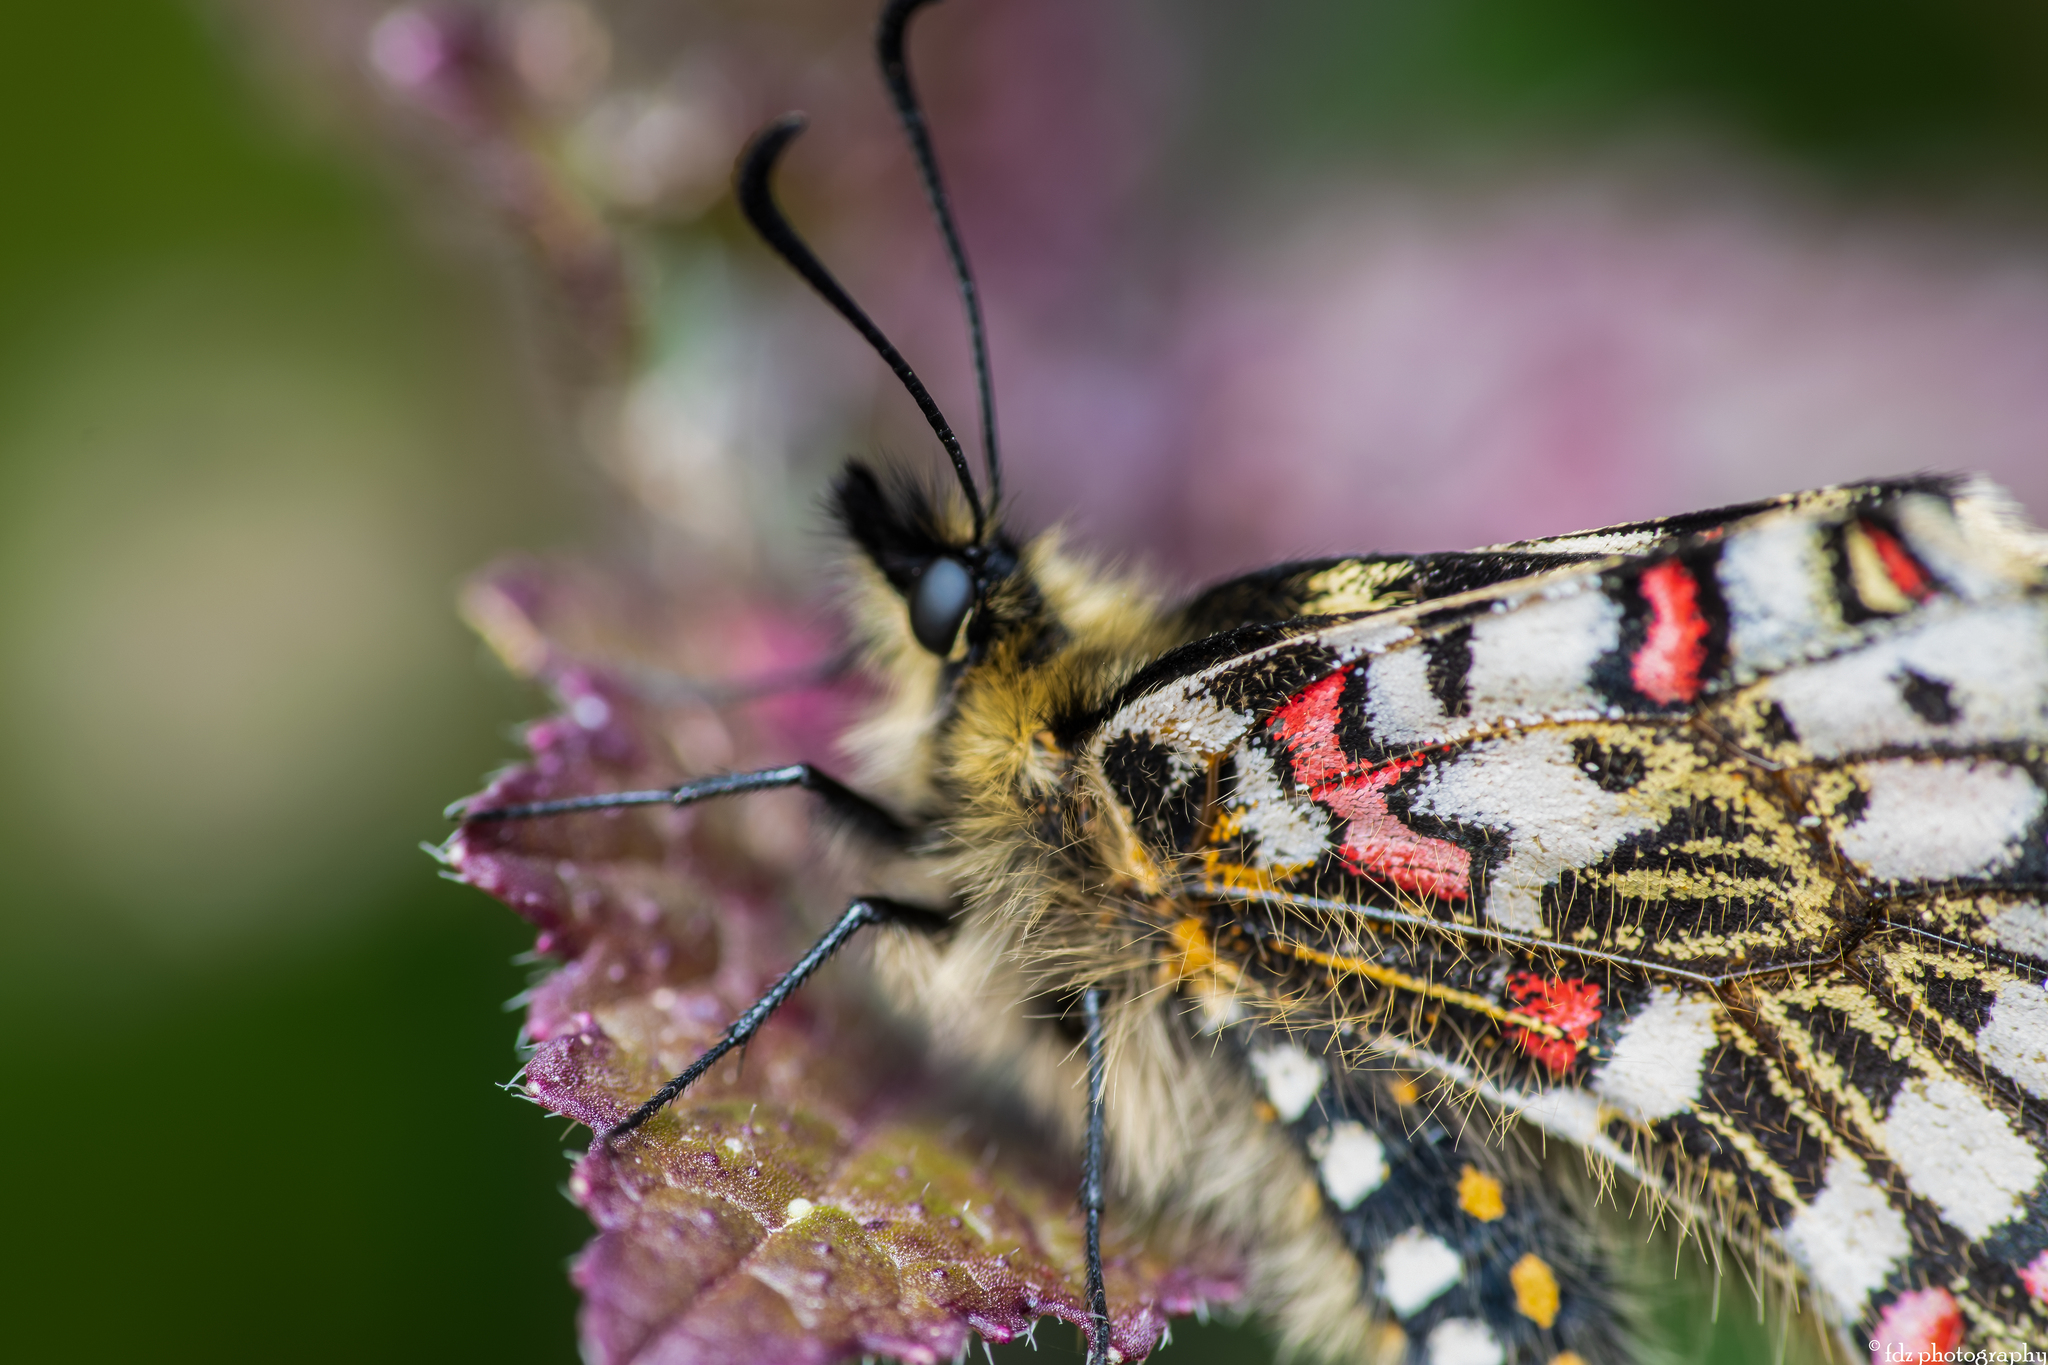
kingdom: Animalia
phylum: Arthropoda
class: Insecta
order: Lepidoptera
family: Papilionidae
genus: Zerynthia
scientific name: Zerynthia rumina
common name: Spanish festoon
